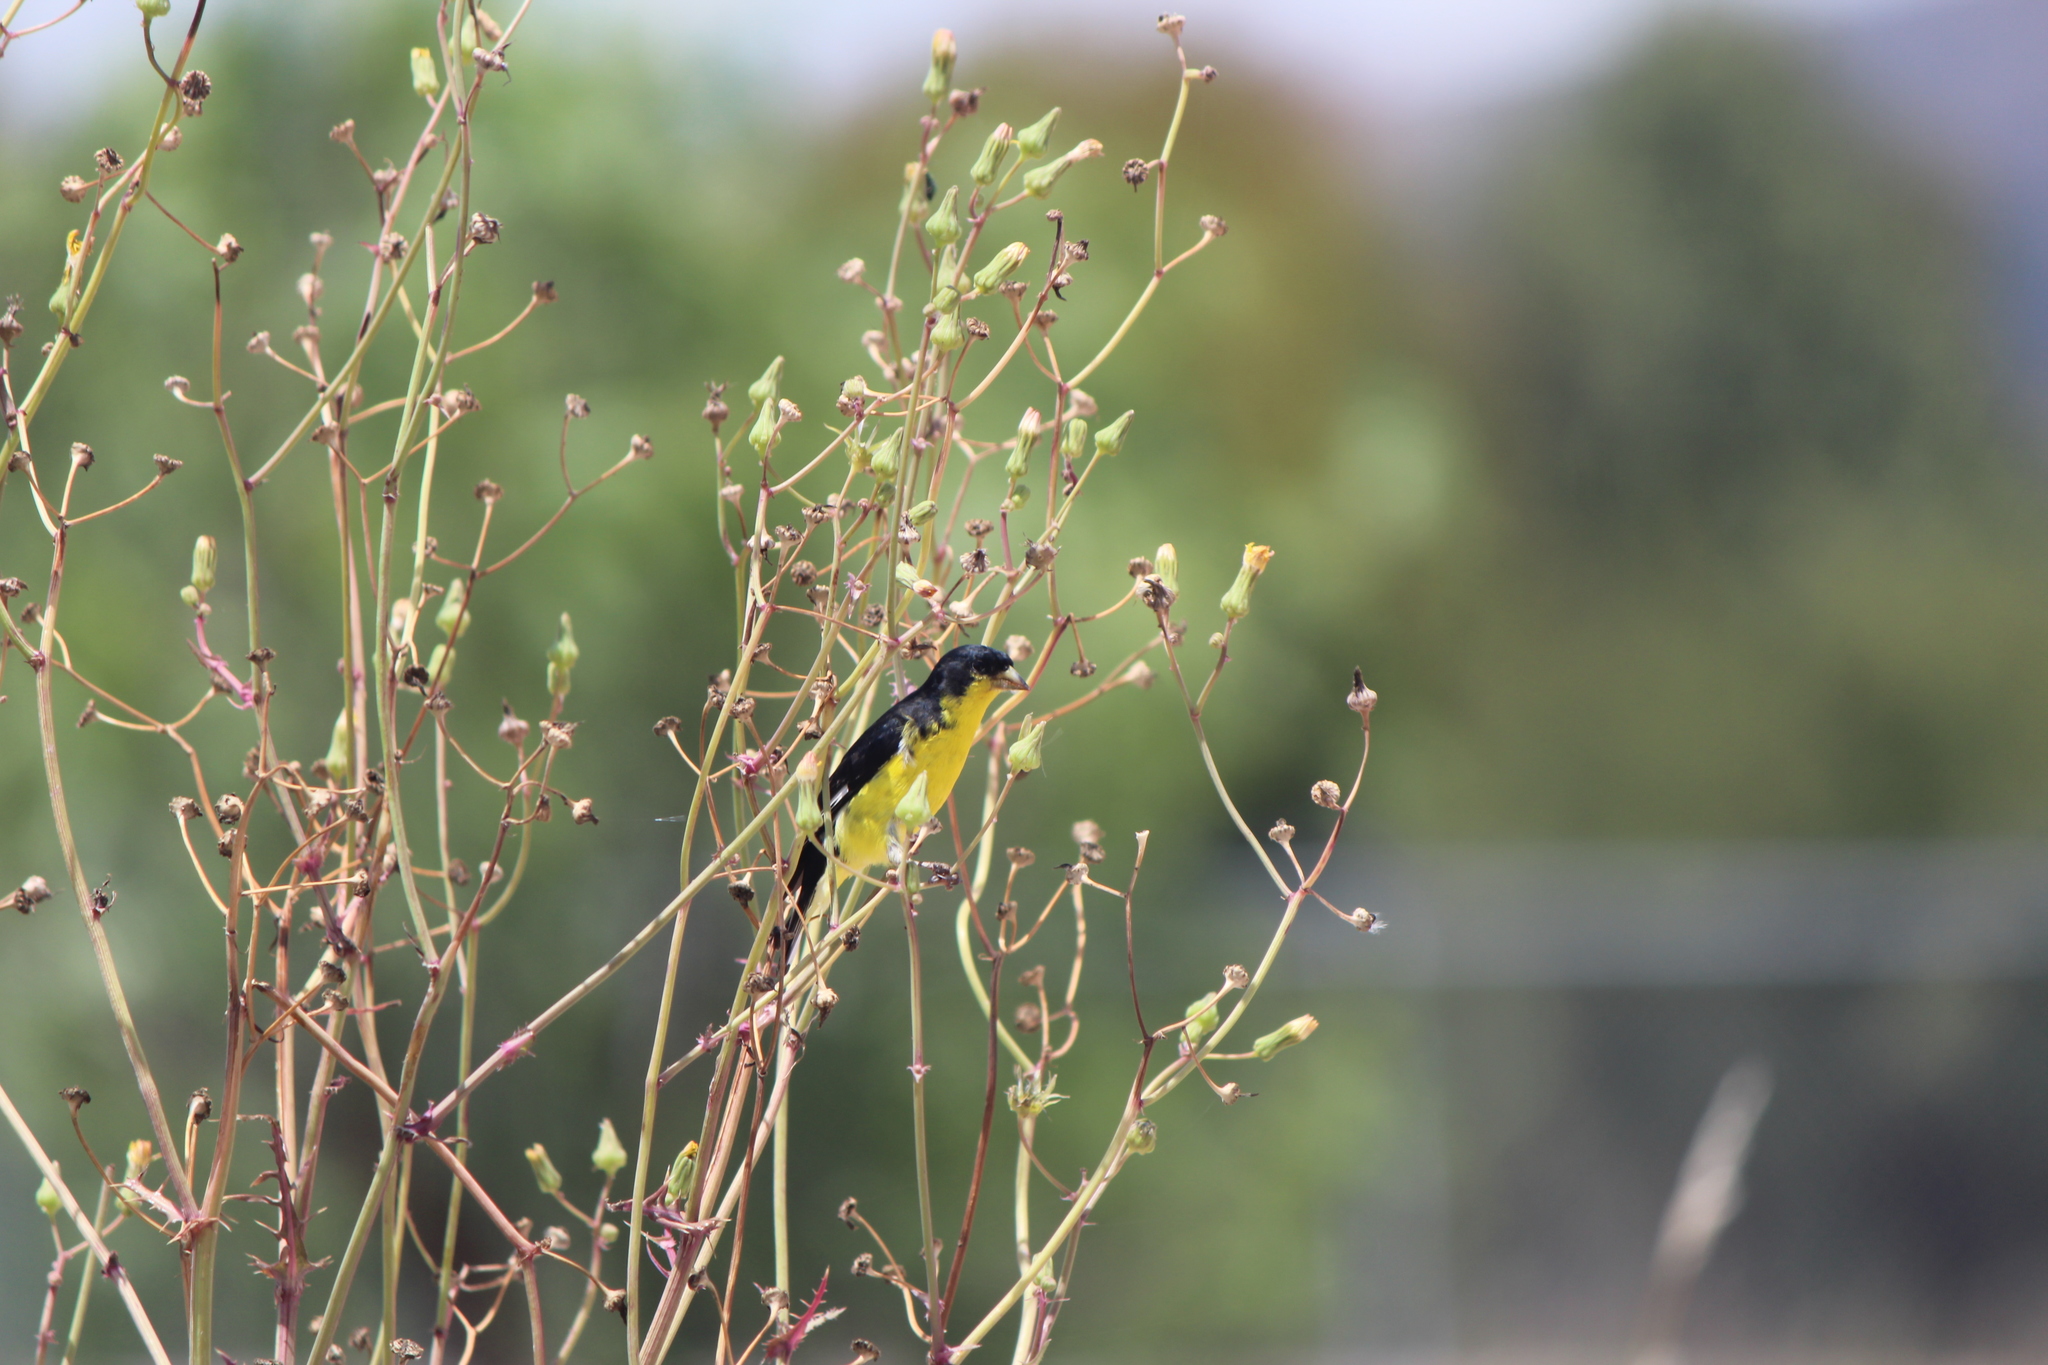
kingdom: Animalia
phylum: Chordata
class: Aves
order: Passeriformes
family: Fringillidae
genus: Spinus
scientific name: Spinus psaltria
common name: Lesser goldfinch
